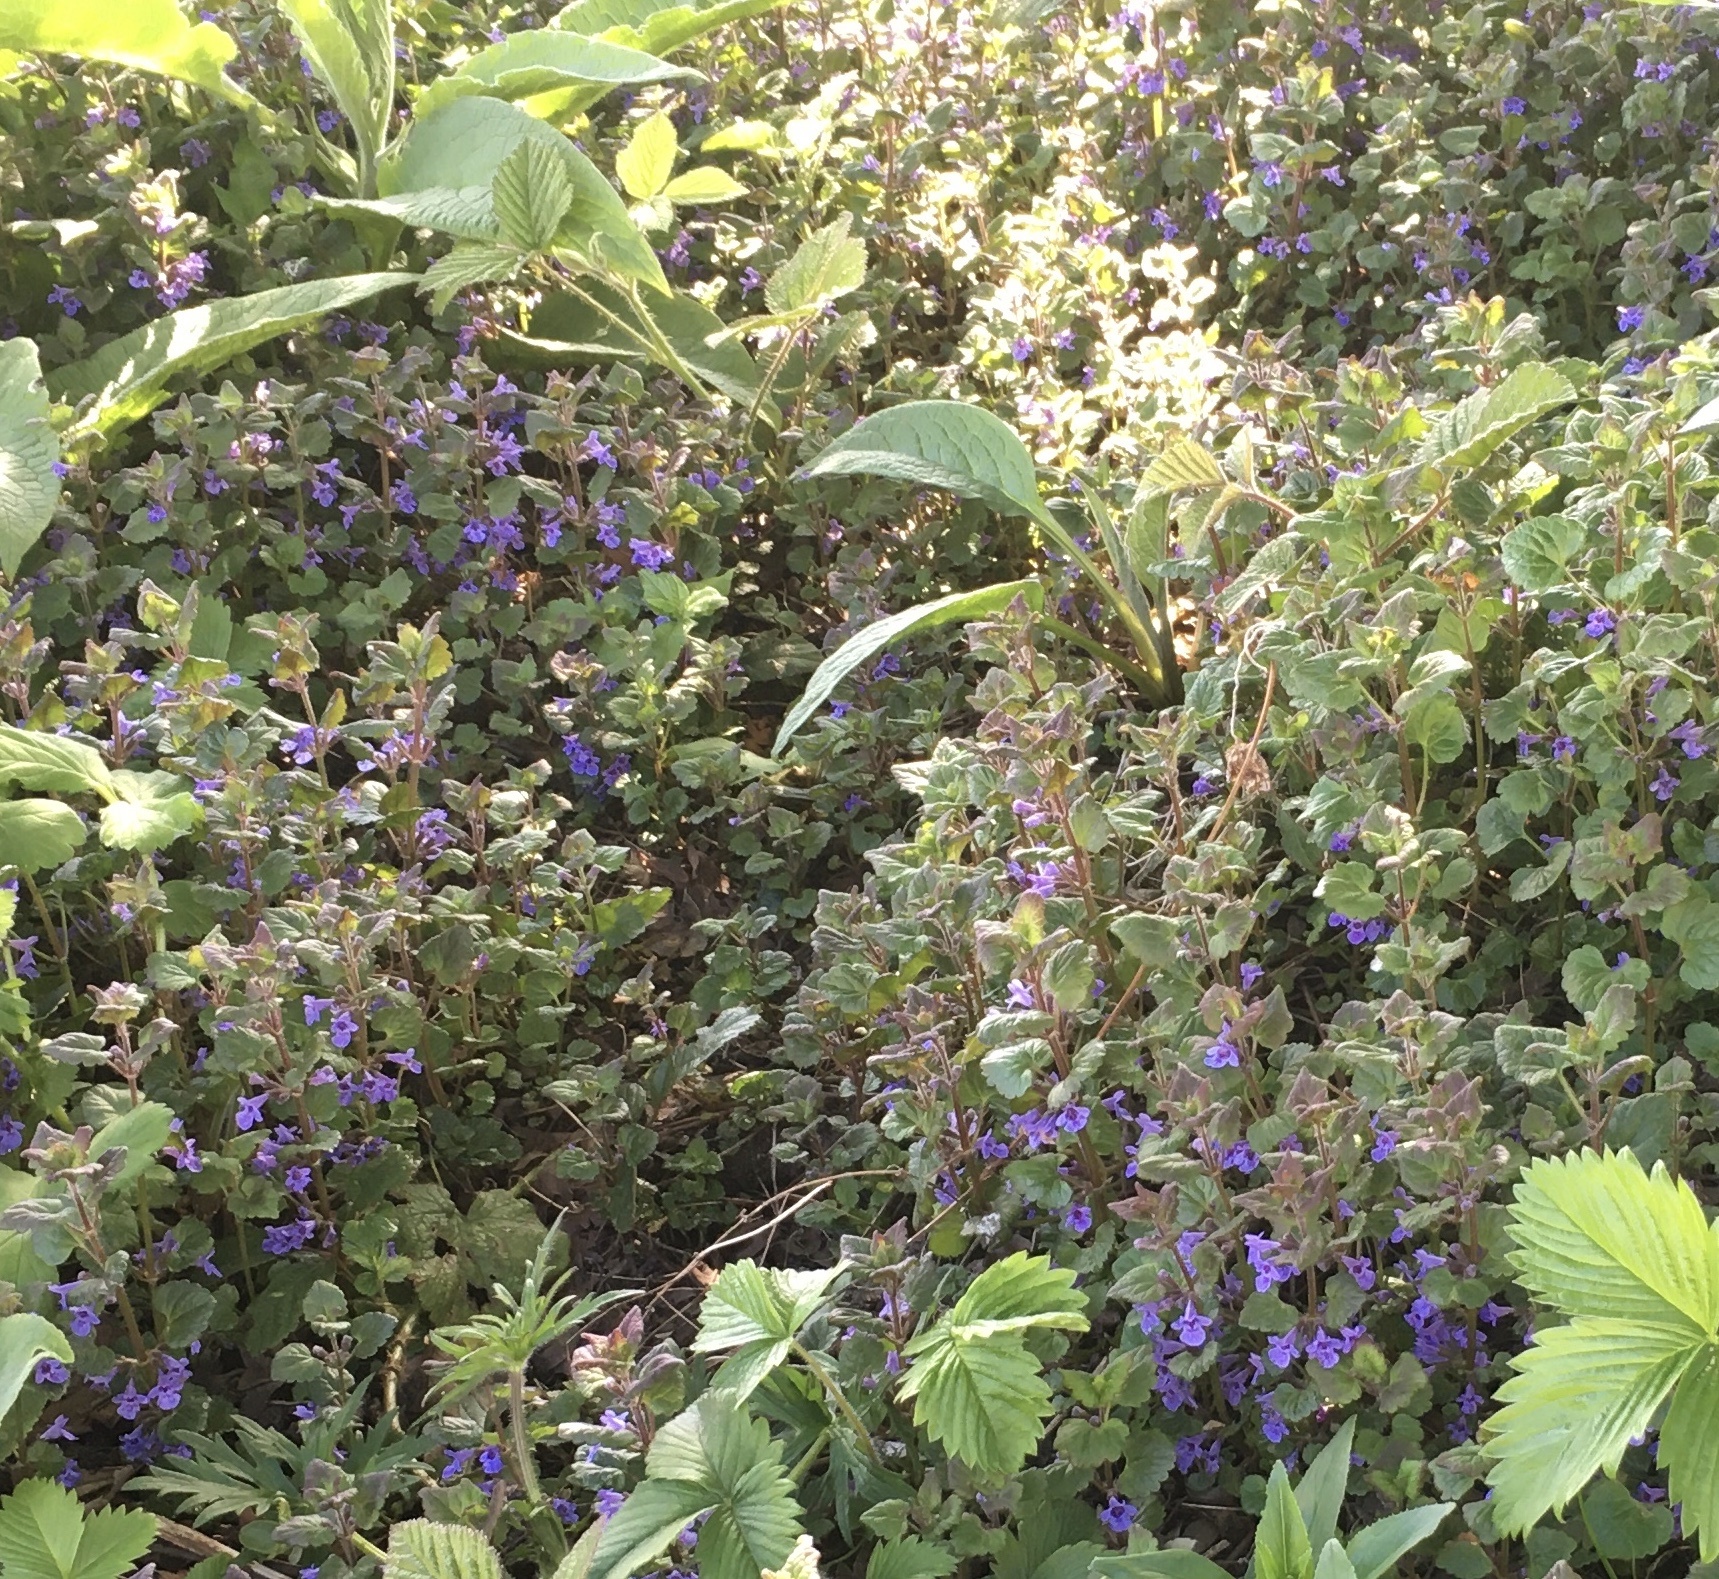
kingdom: Plantae
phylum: Tracheophyta
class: Magnoliopsida
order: Lamiales
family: Lamiaceae
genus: Glechoma
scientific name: Glechoma hederacea
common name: Ground ivy
